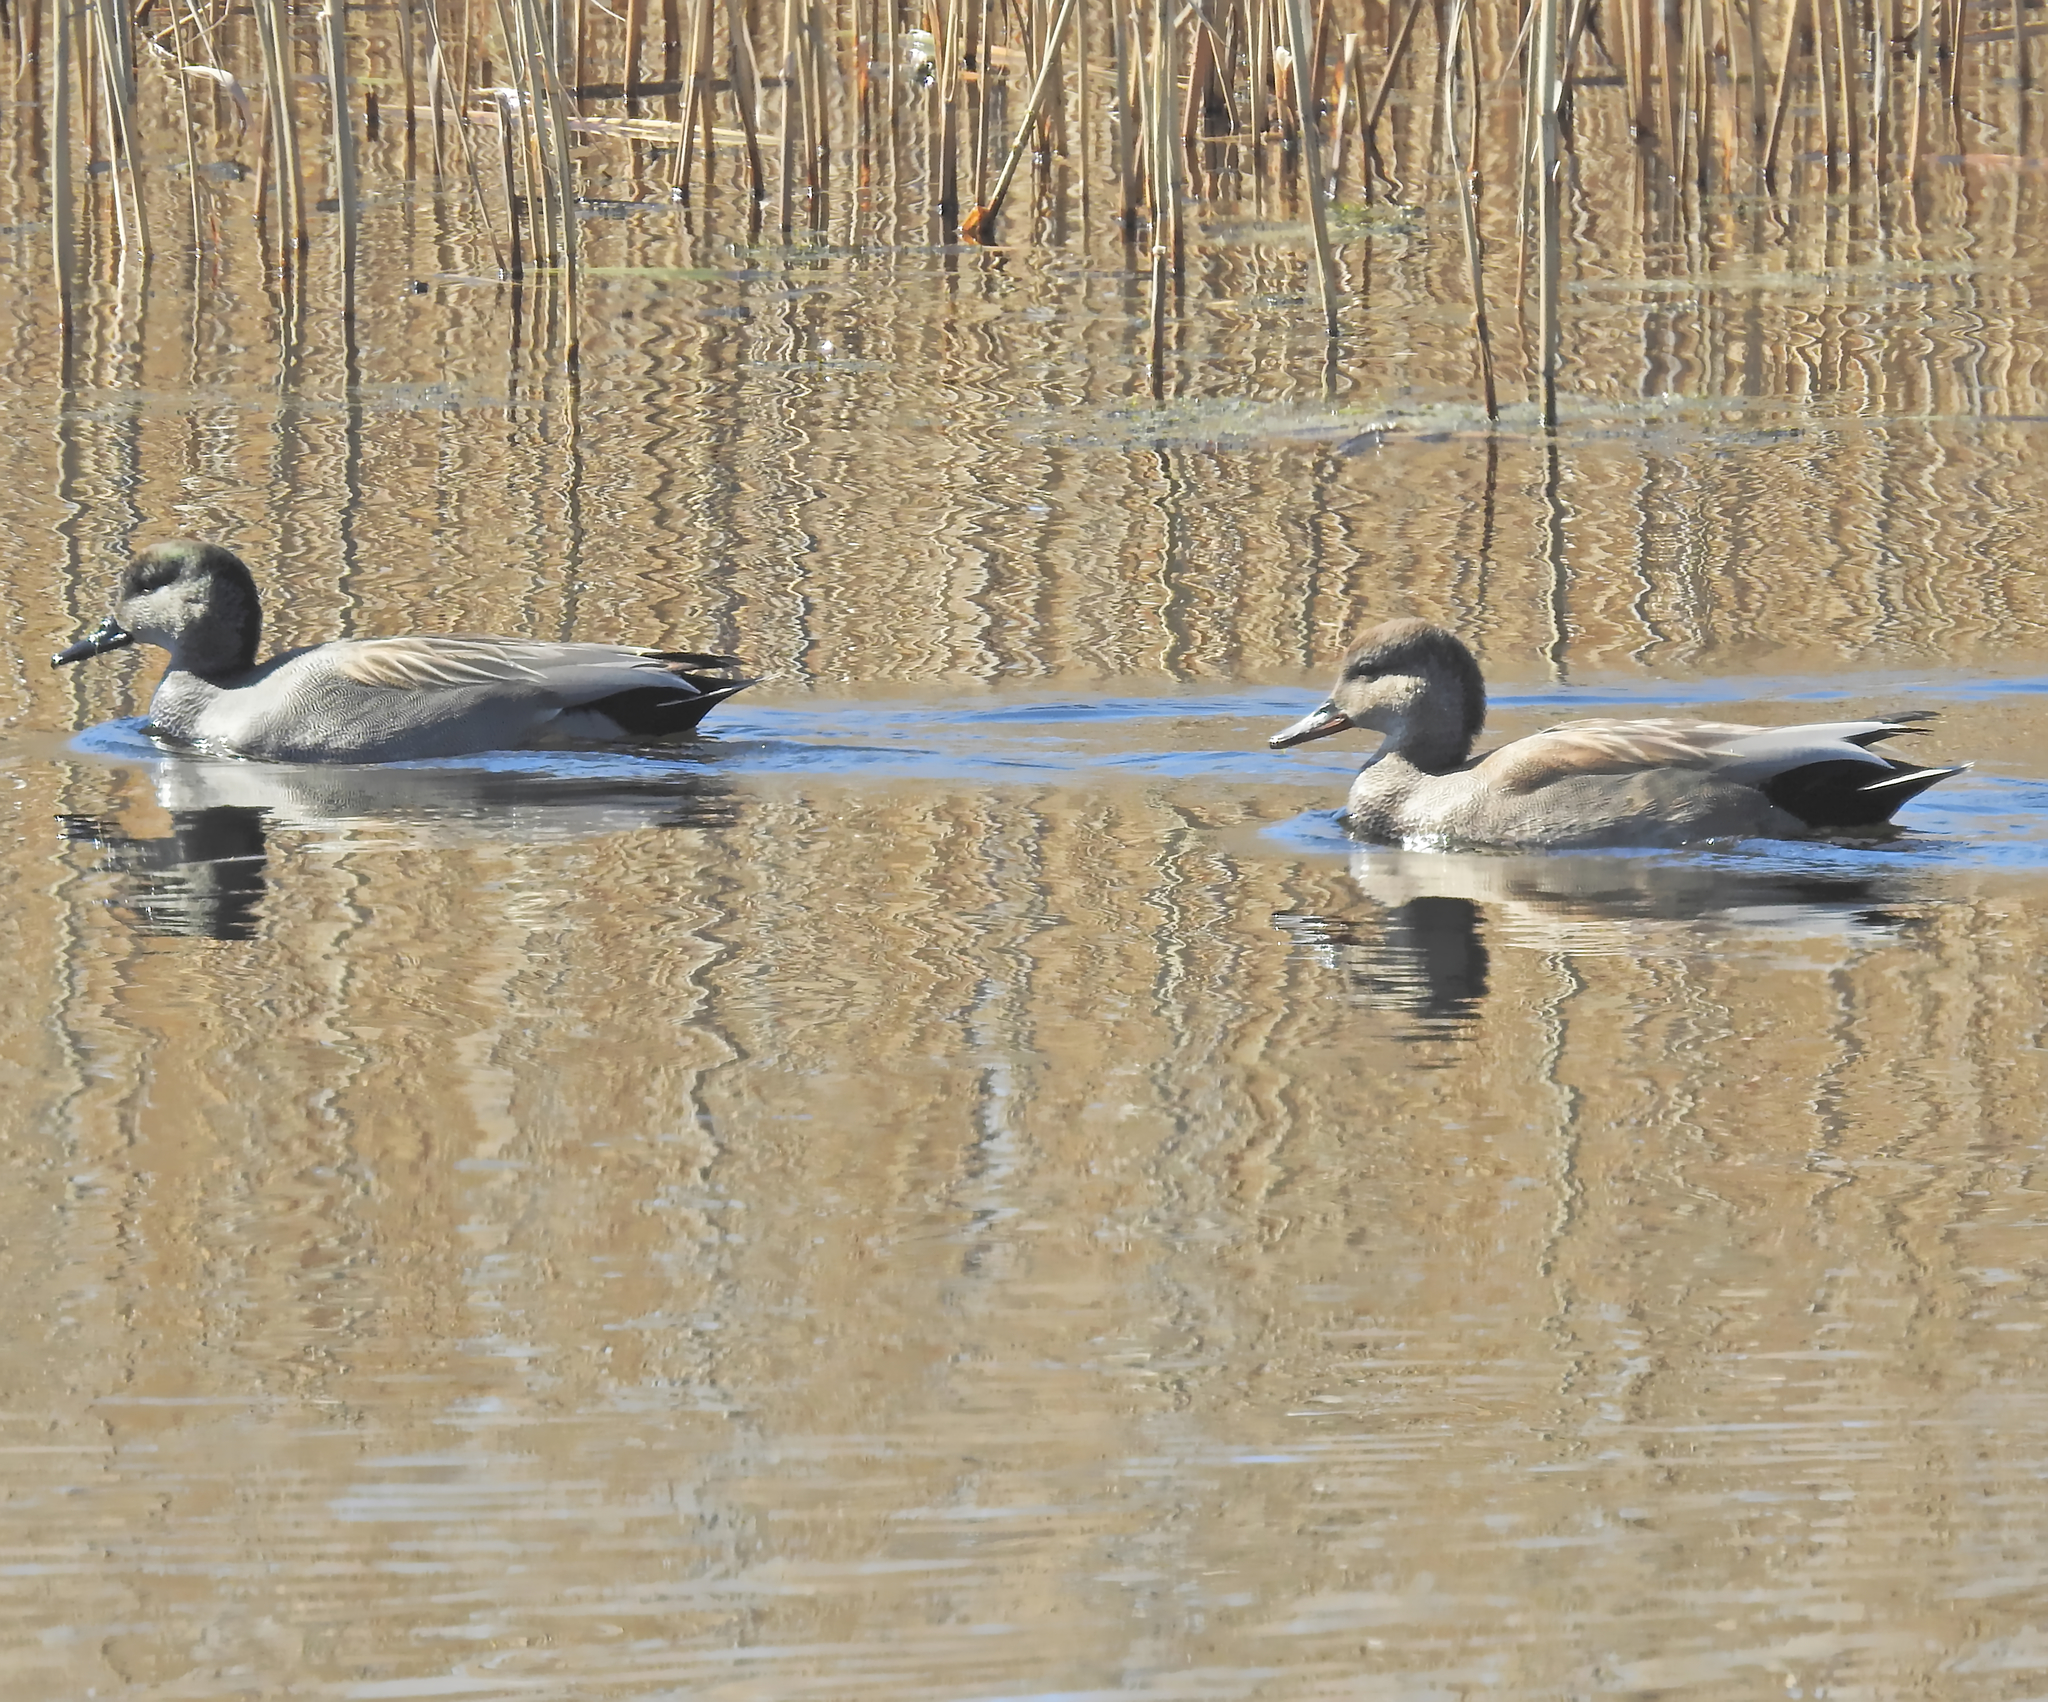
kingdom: Animalia
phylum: Chordata
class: Aves
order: Anseriformes
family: Anatidae
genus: Mareca
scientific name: Mareca strepera
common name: Gadwall
